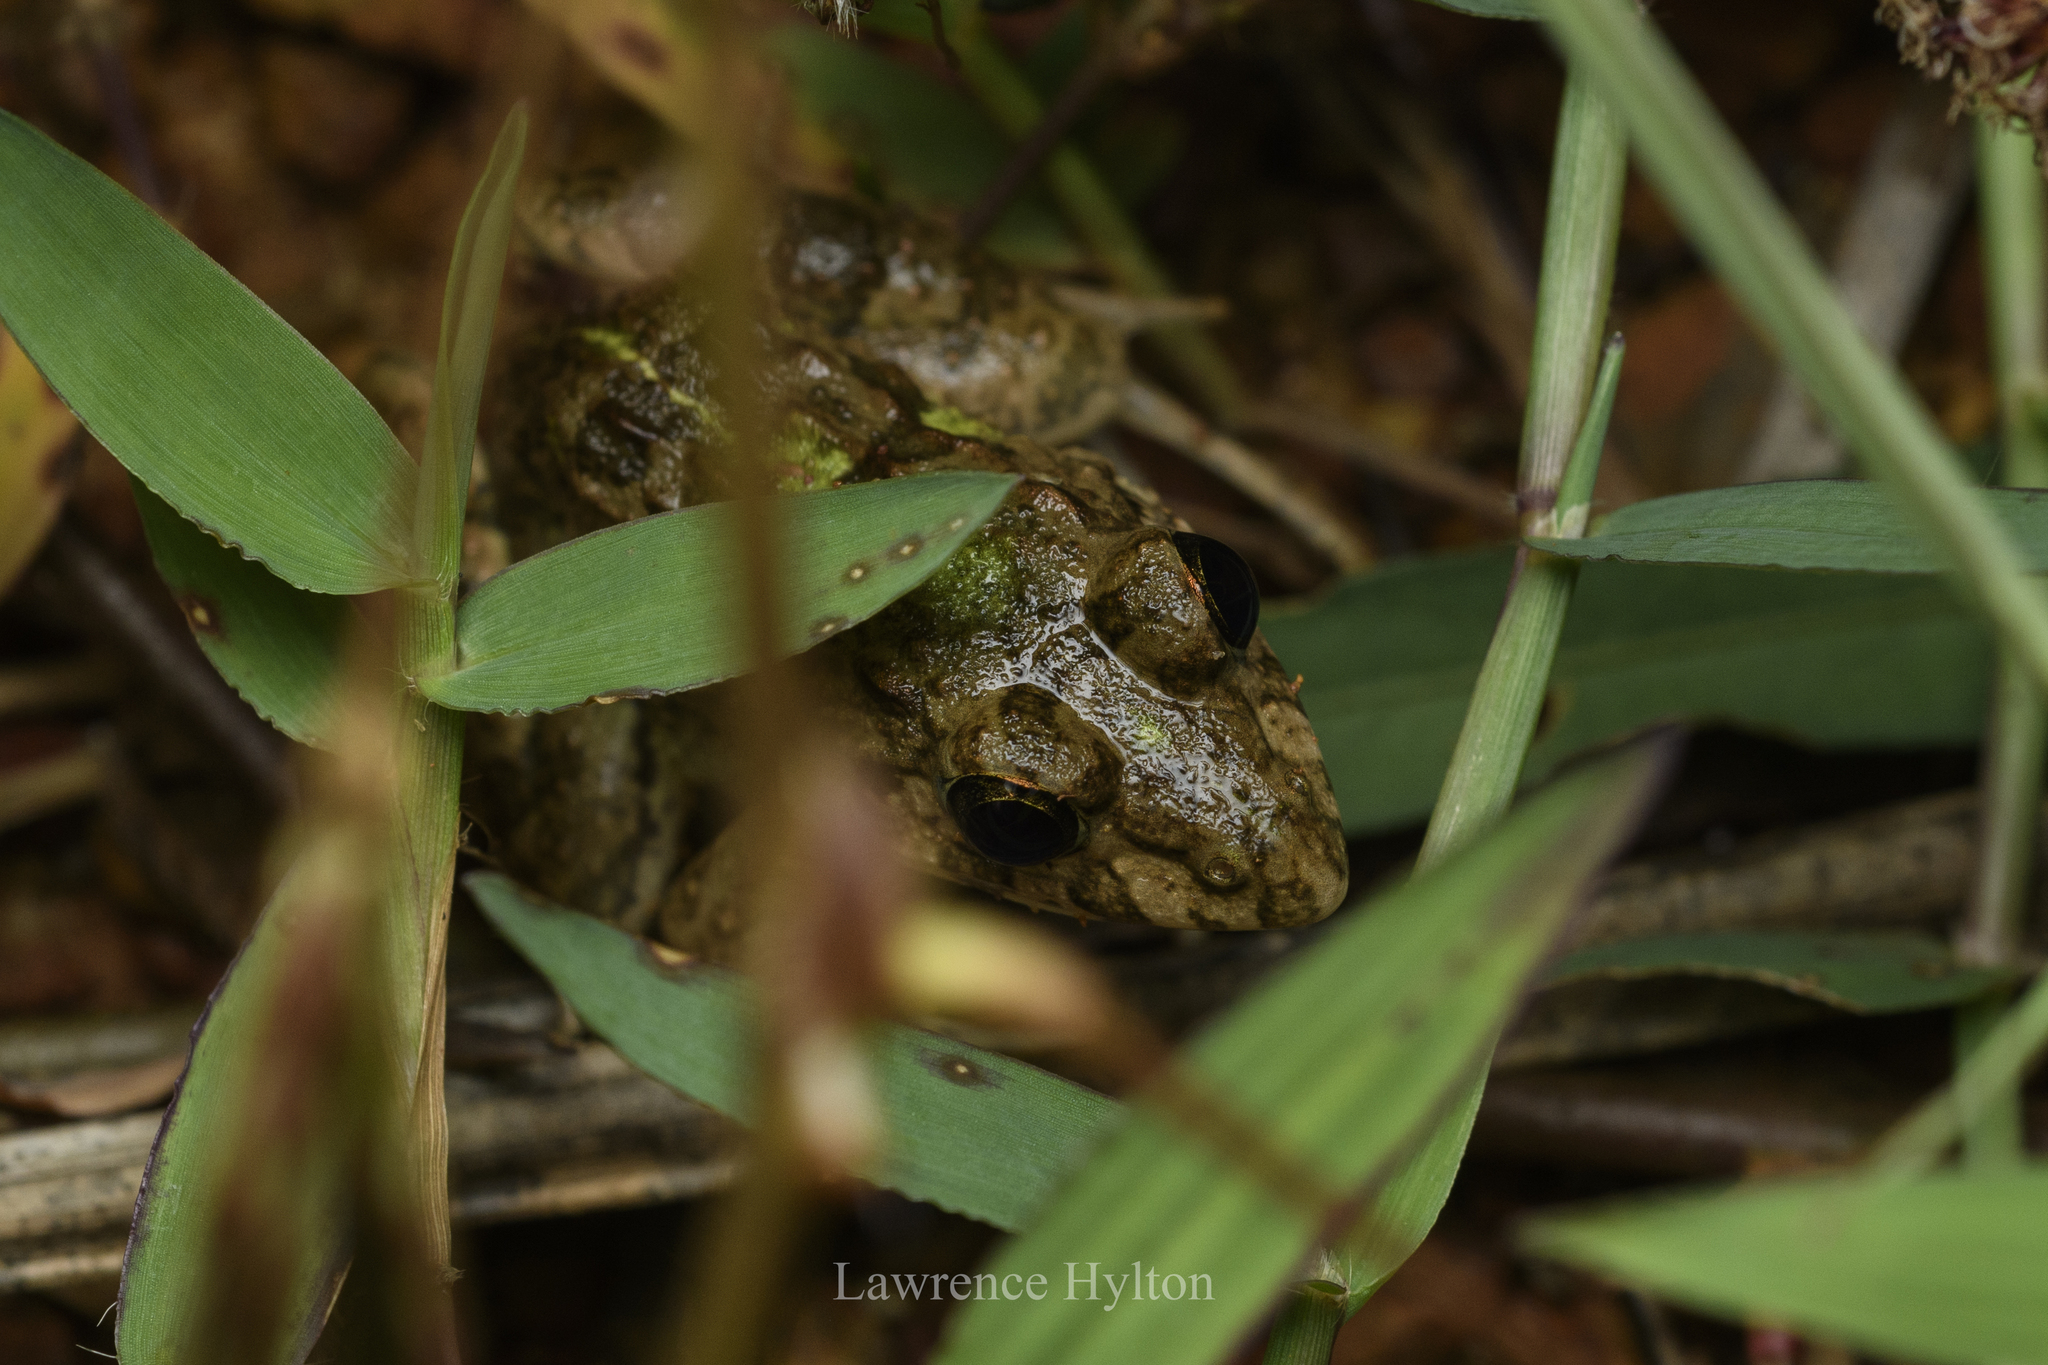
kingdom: Animalia
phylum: Chordata
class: Amphibia
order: Anura
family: Dicroglossidae
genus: Fejervarya
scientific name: Fejervarya limnocharis
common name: Asian grass frog/common pond frog/field frog/grass frog/indian rice frog
